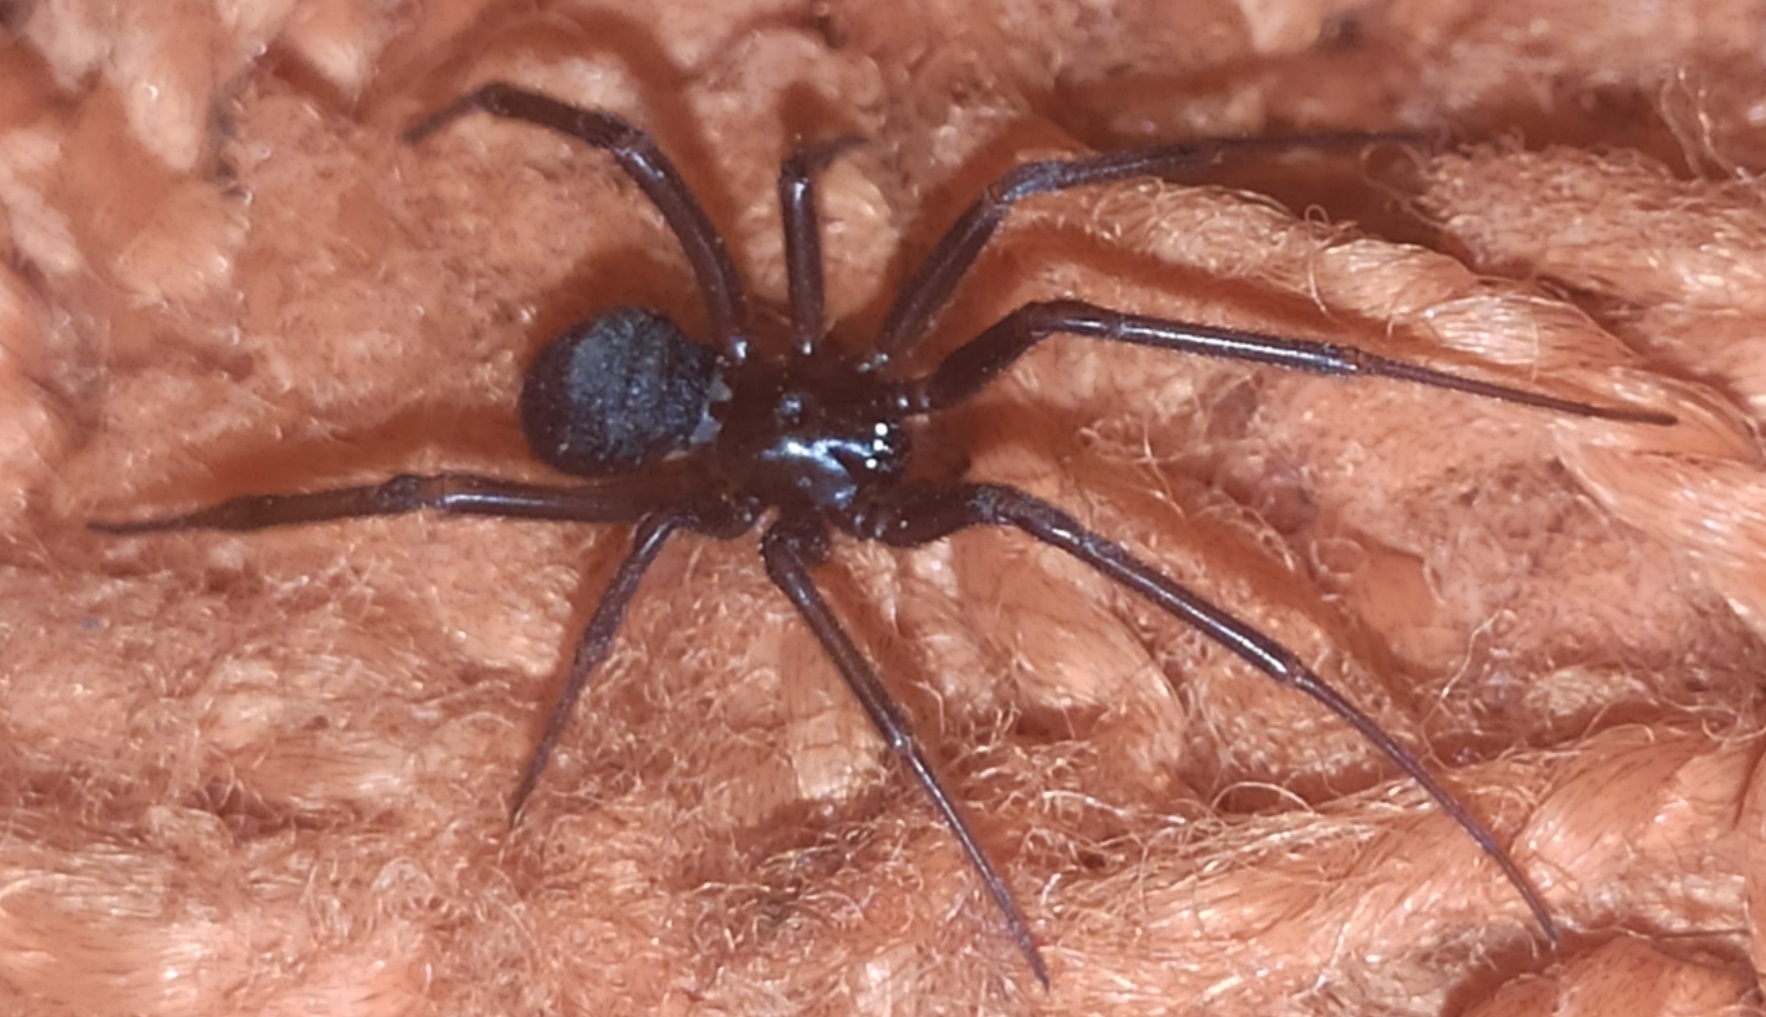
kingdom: Animalia
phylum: Arthropoda
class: Arachnida
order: Araneae
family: Theridiidae
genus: Steatoda
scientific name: Steatoda grossa
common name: False black widow
